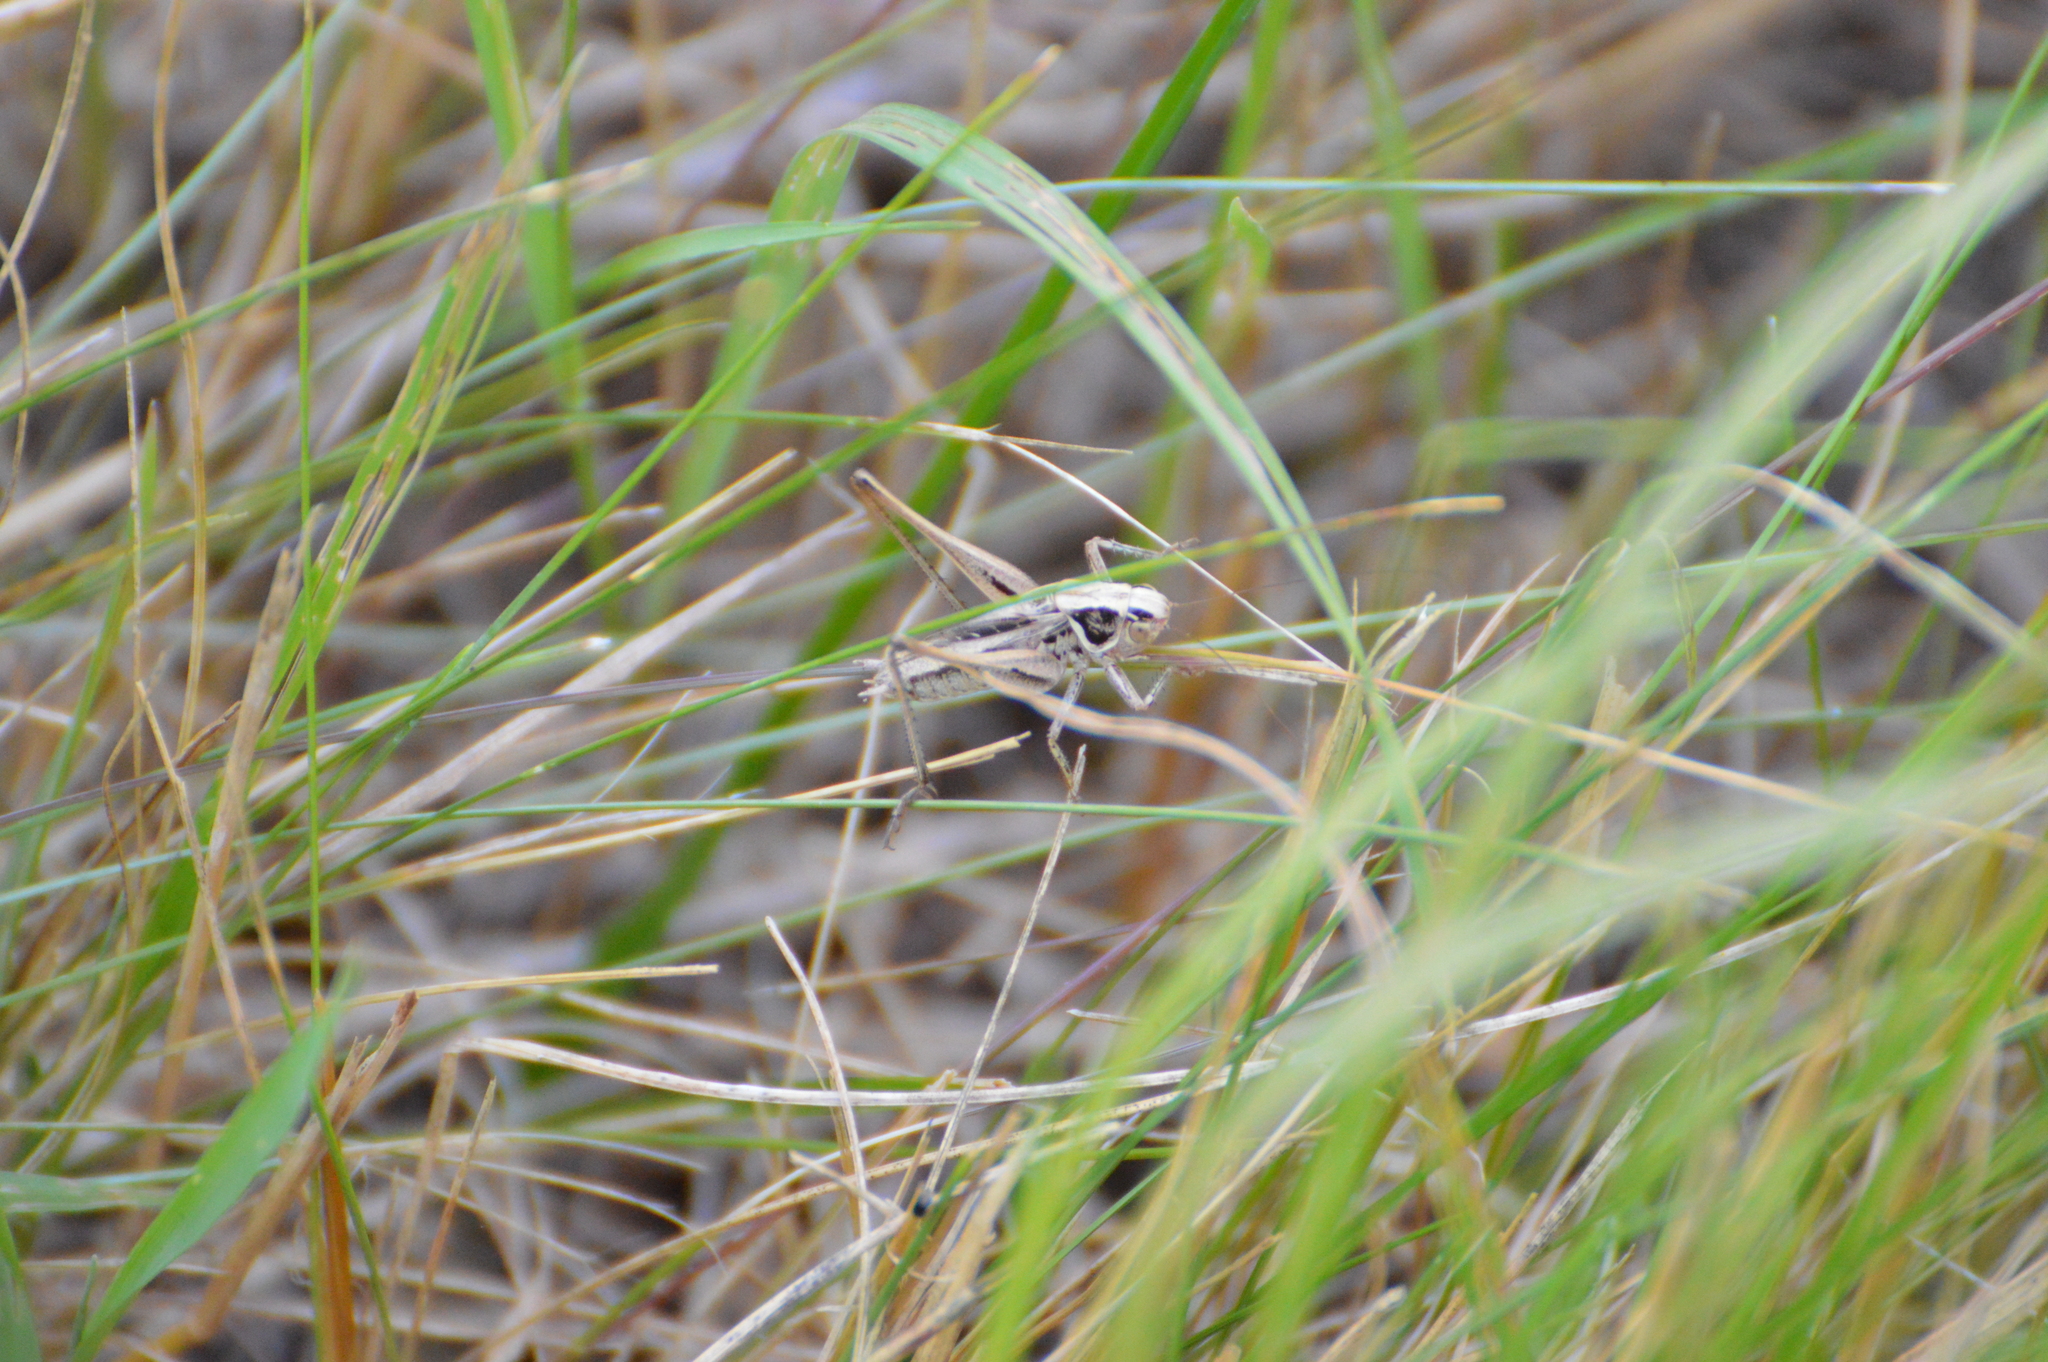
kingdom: Animalia
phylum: Arthropoda
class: Insecta
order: Orthoptera
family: Tettigoniidae
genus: Tessellana
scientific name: Tessellana veyseli
